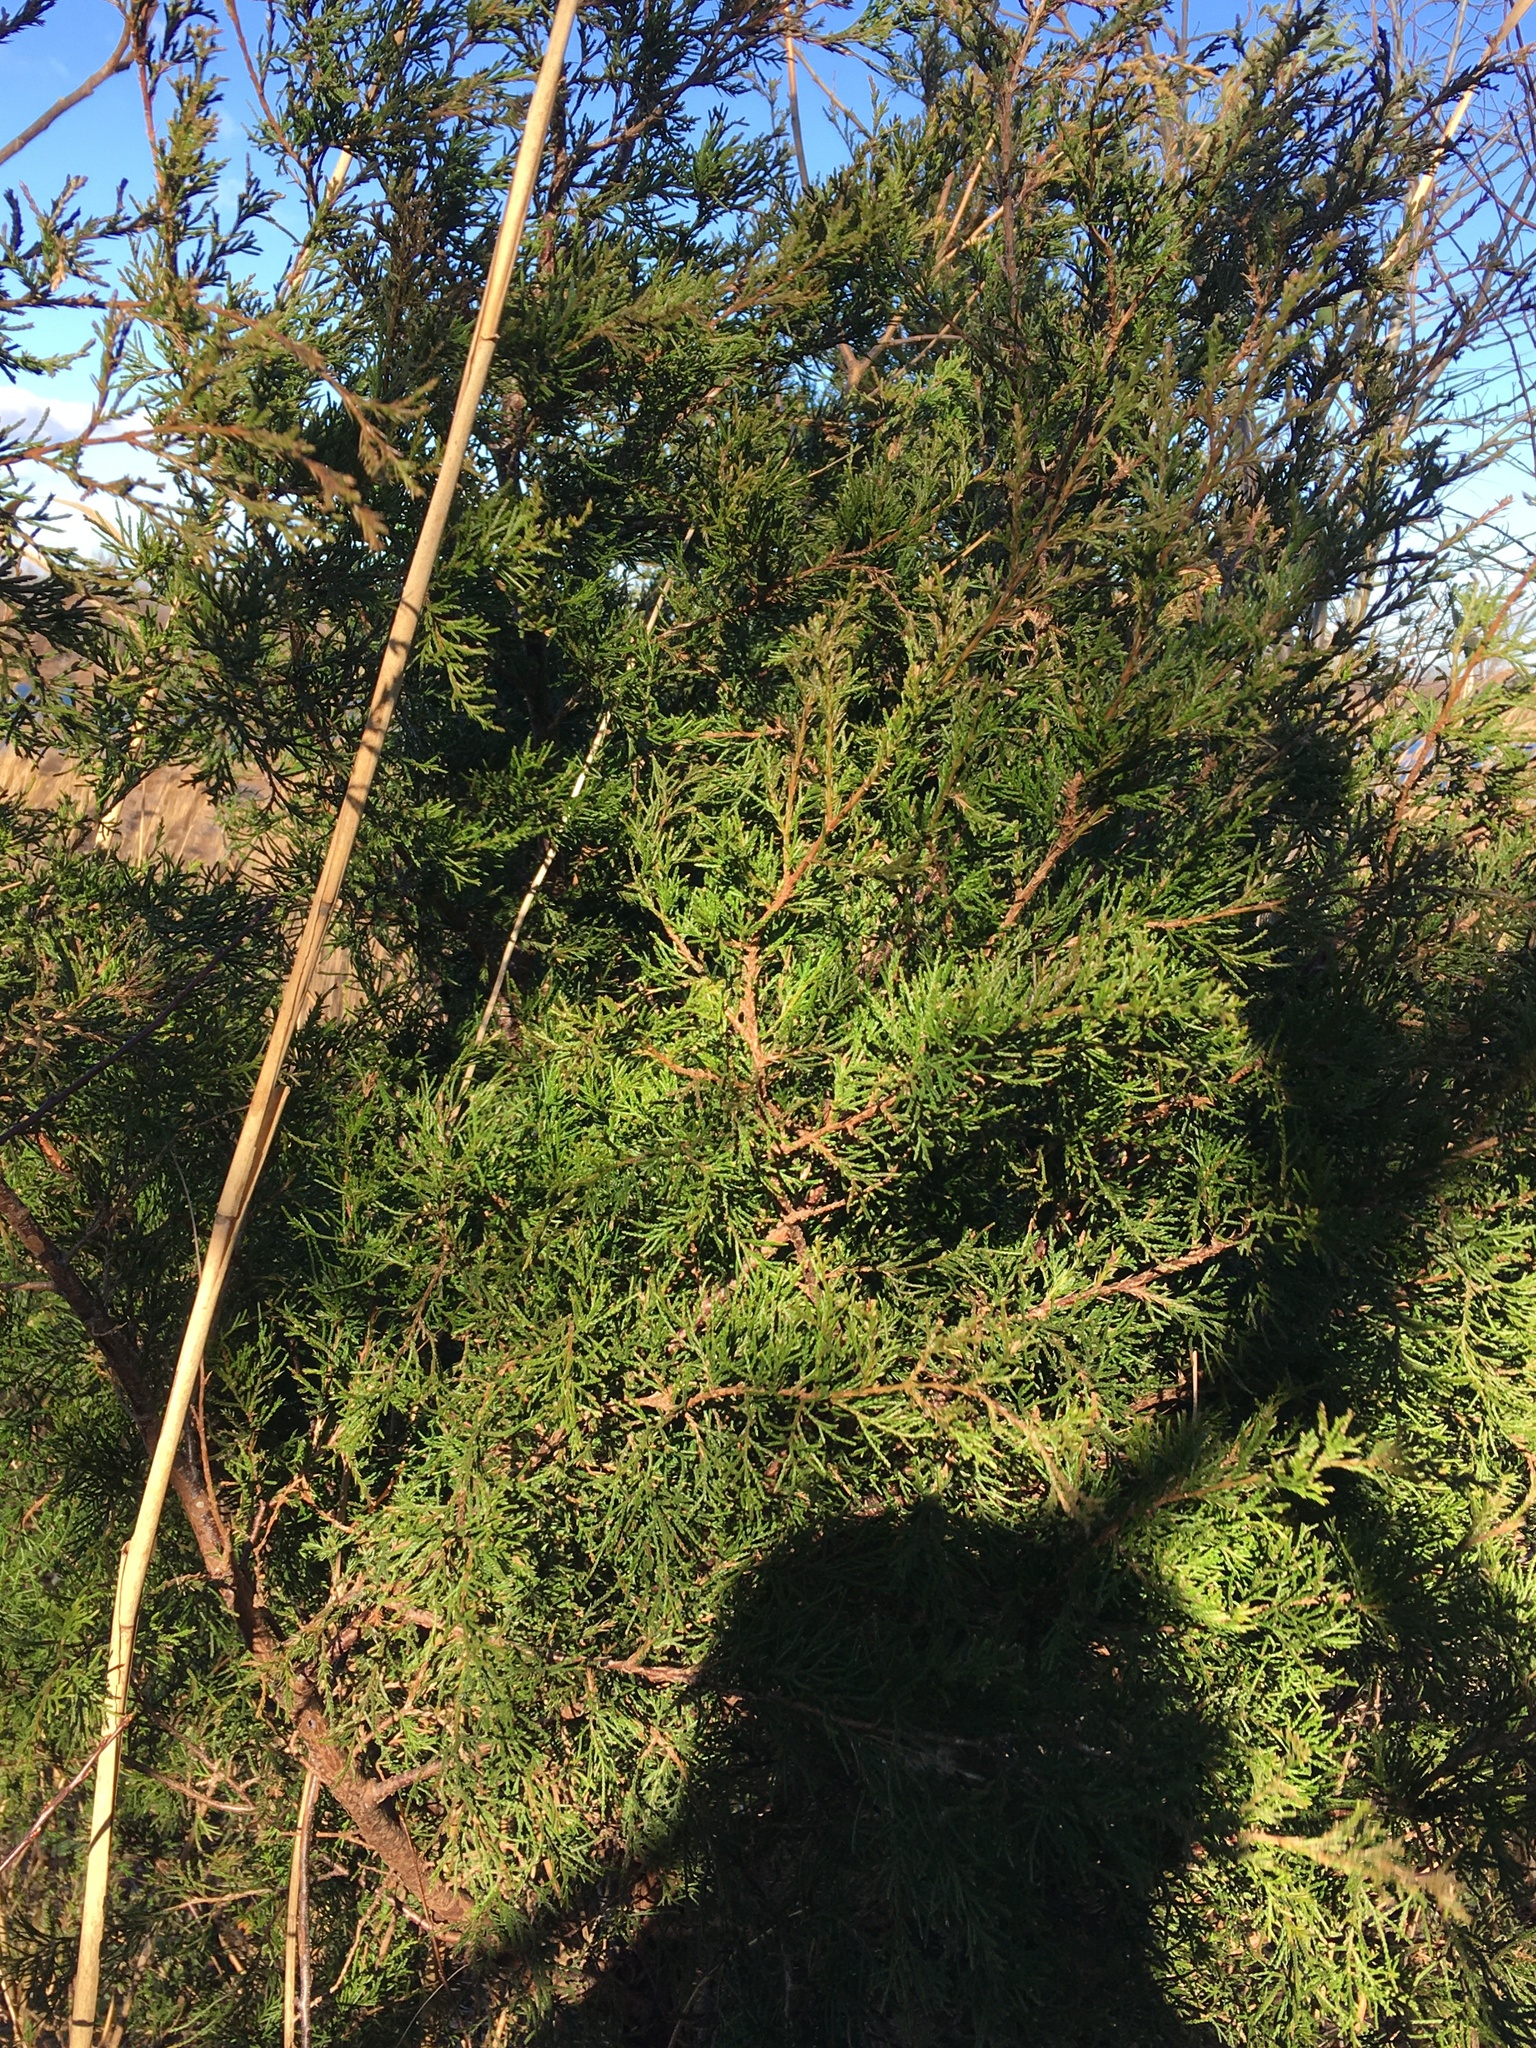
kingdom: Plantae
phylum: Tracheophyta
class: Pinopsida
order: Pinales
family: Cupressaceae
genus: Juniperus
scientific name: Juniperus virginiana
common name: Red juniper
